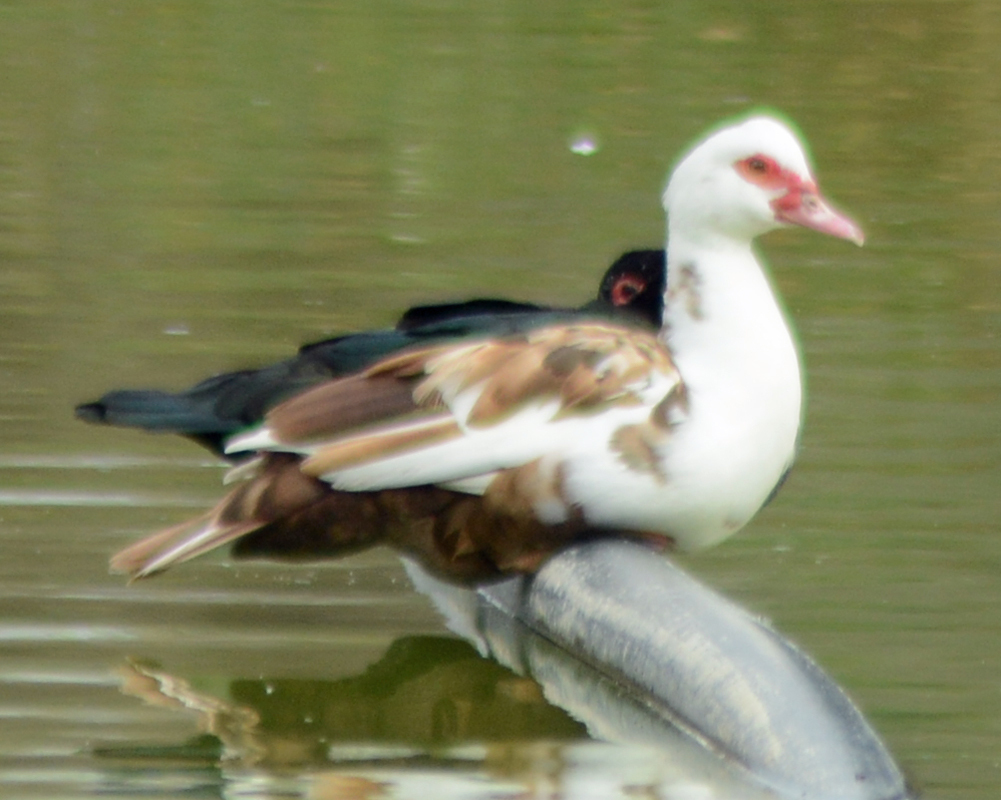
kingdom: Animalia
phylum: Chordata
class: Aves
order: Anseriformes
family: Anatidae
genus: Cairina
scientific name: Cairina moschata
